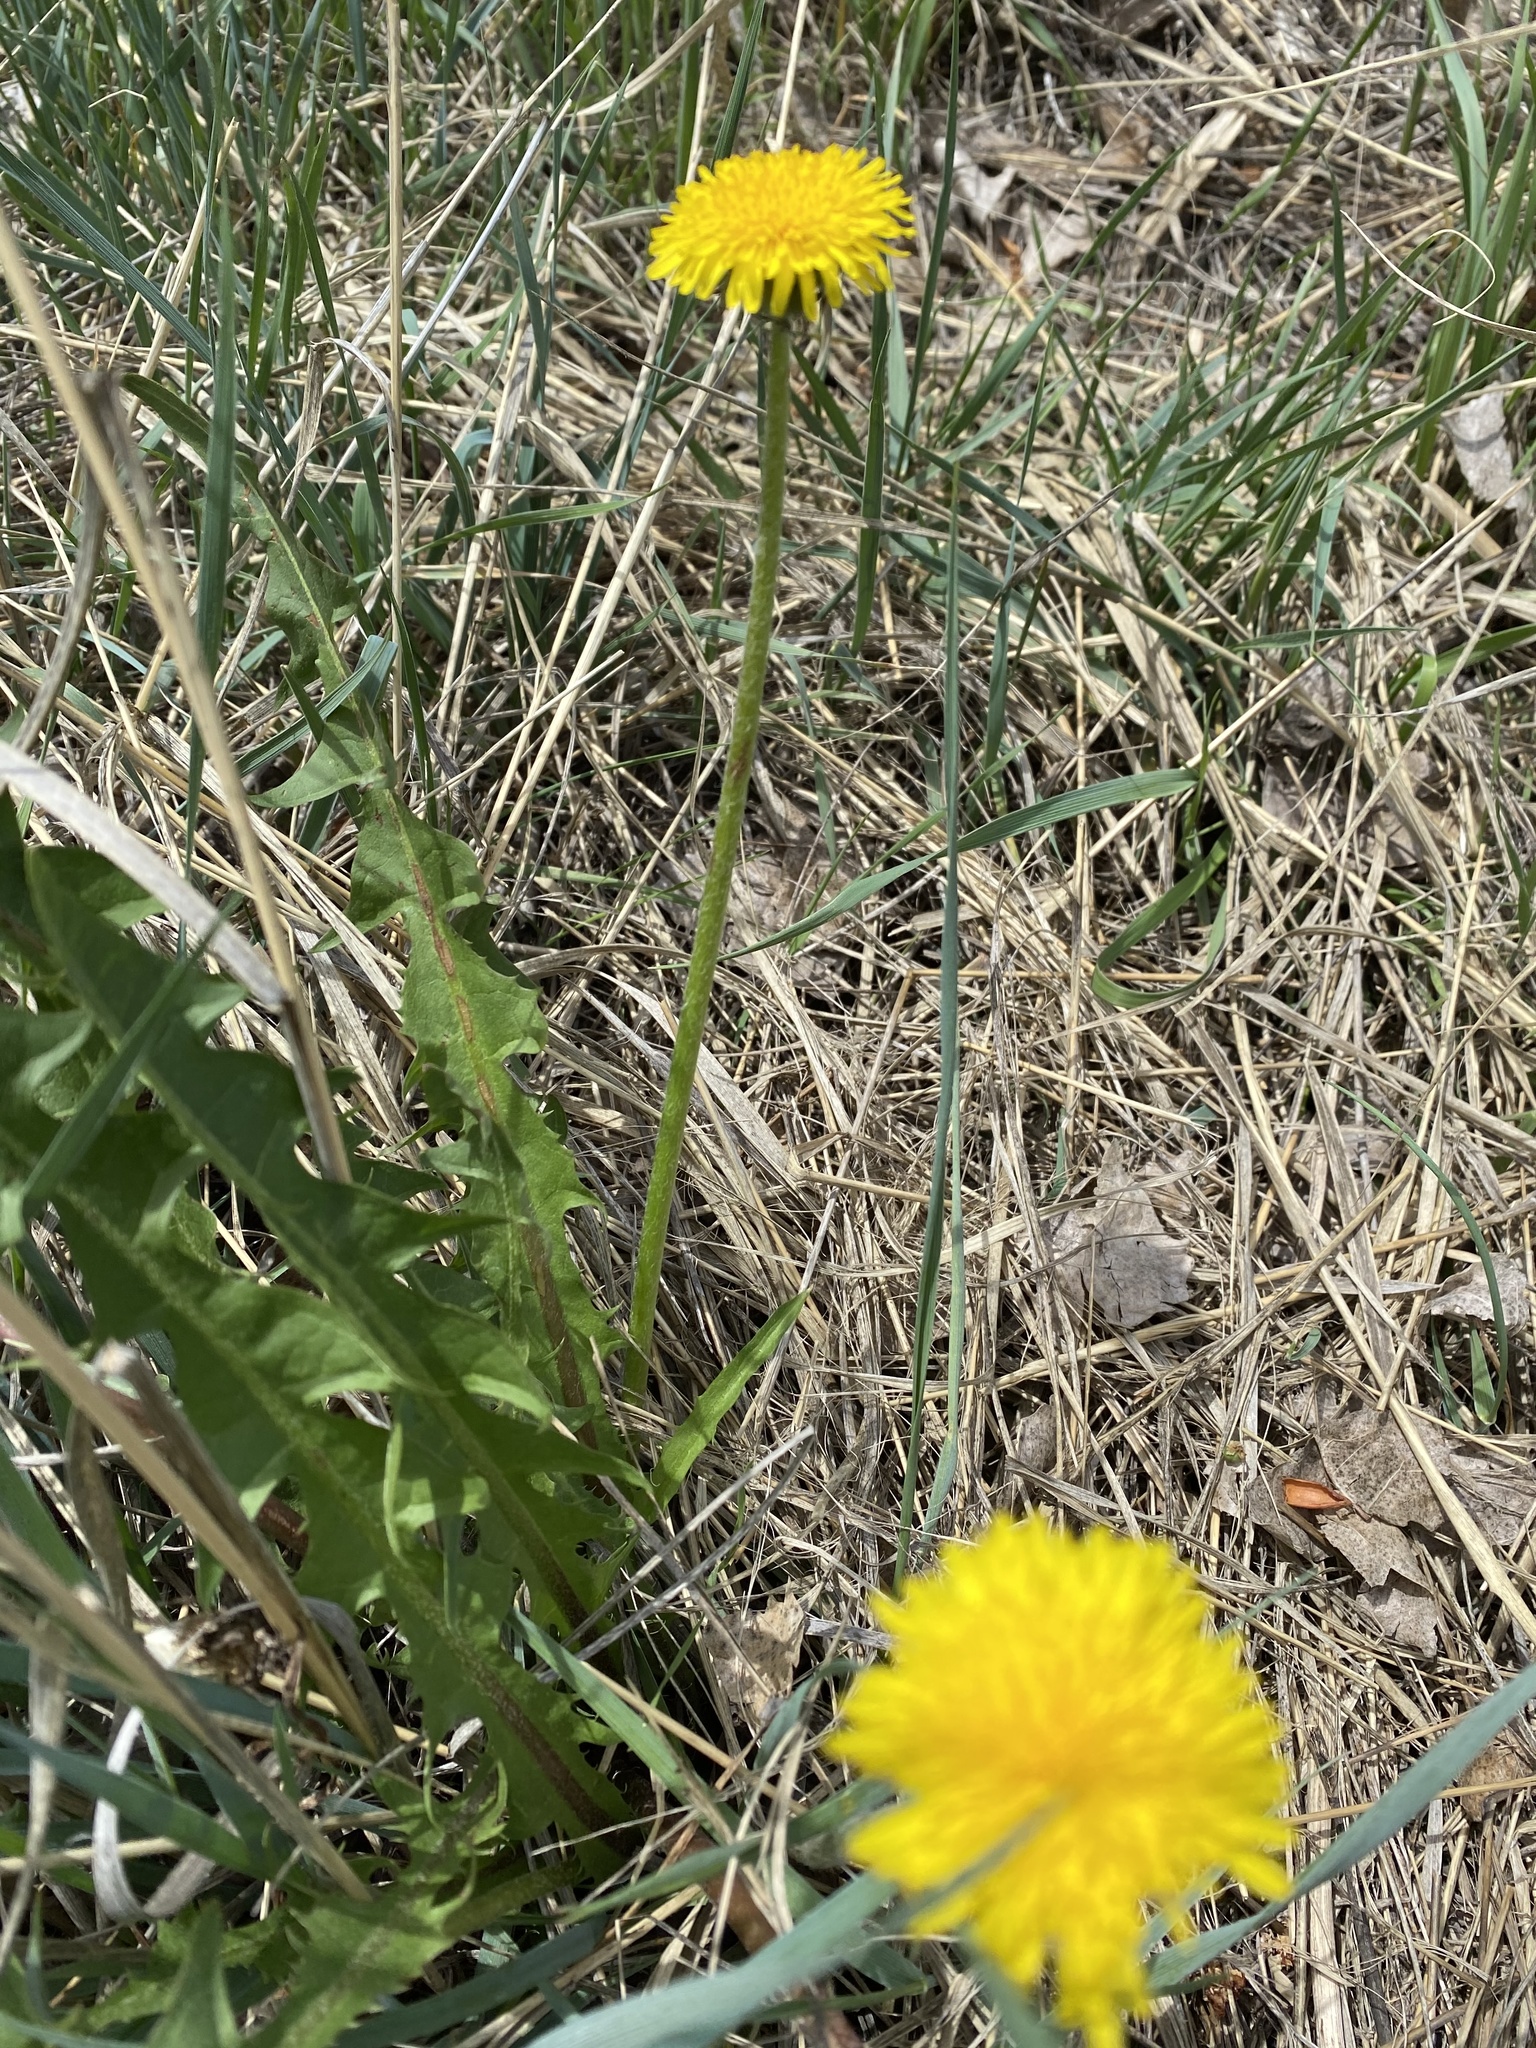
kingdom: Plantae
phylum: Tracheophyta
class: Magnoliopsida
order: Asterales
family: Asteraceae
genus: Taraxacum
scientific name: Taraxacum officinale
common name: Common dandelion
